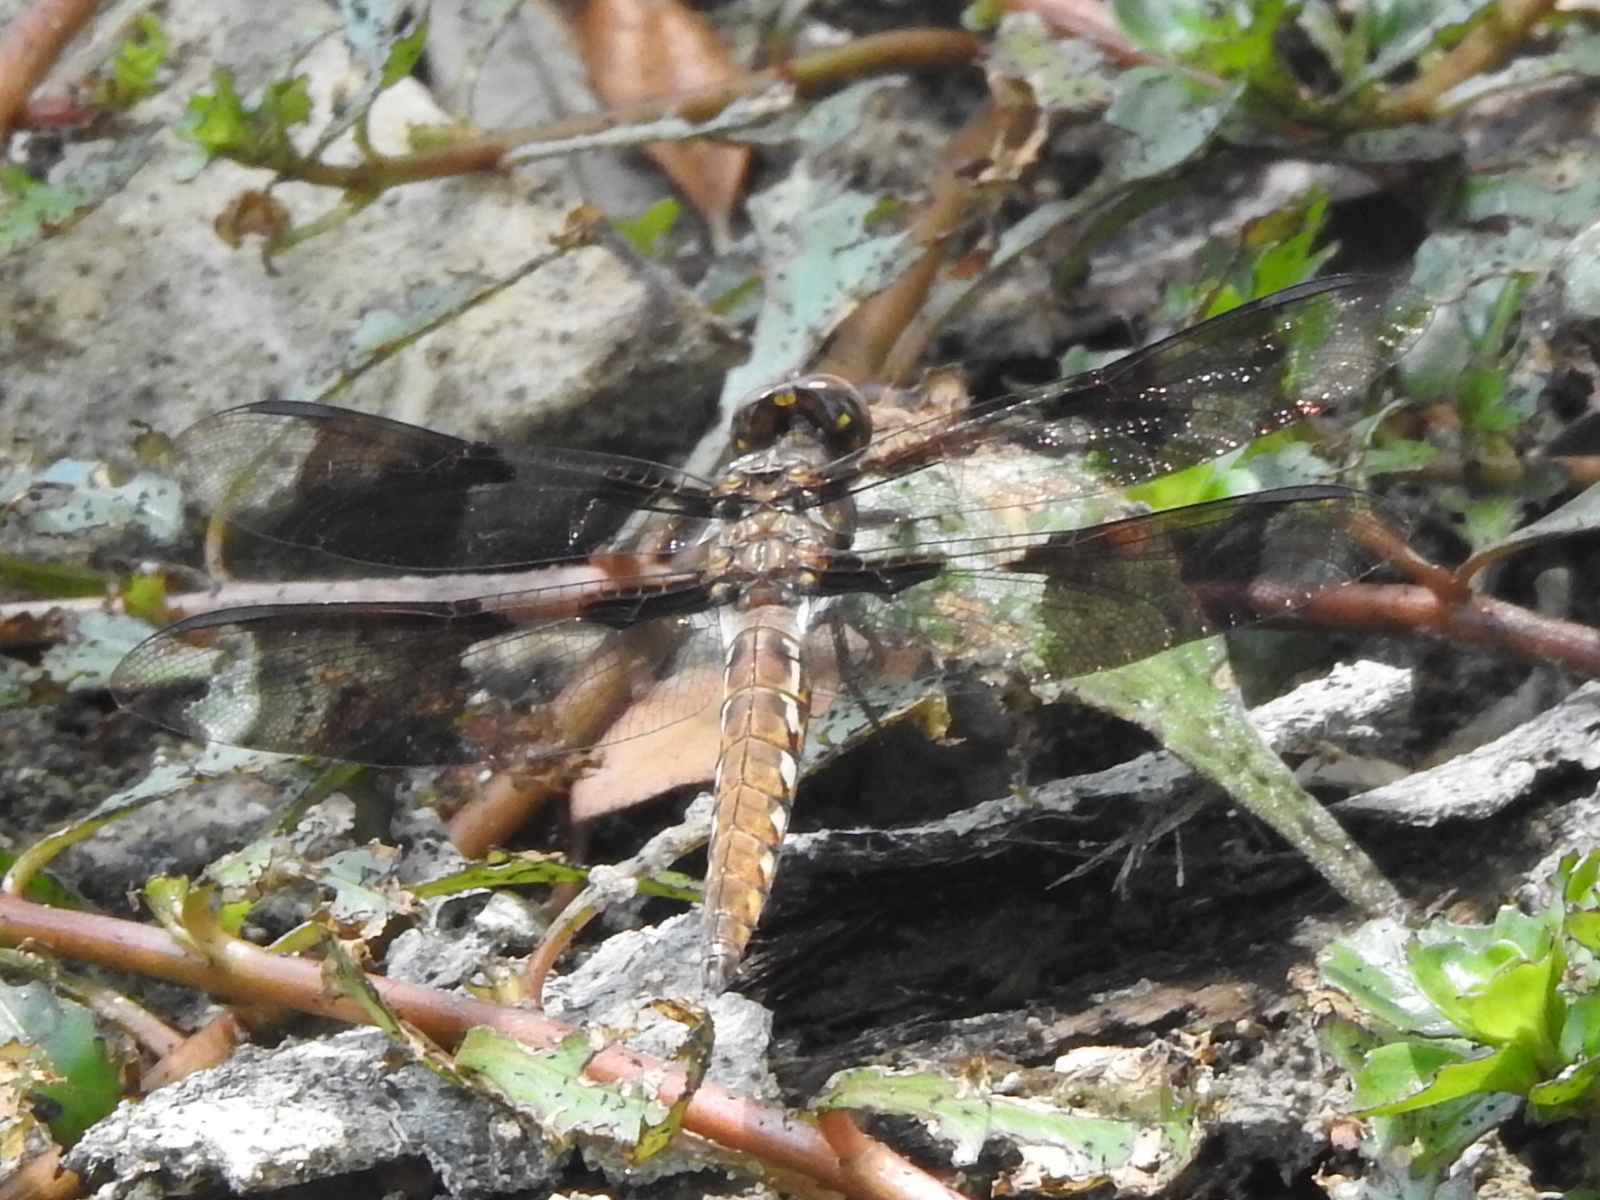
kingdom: Animalia
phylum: Arthropoda
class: Insecta
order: Odonata
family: Libellulidae
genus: Plathemis
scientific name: Plathemis lydia
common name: Common whitetail
